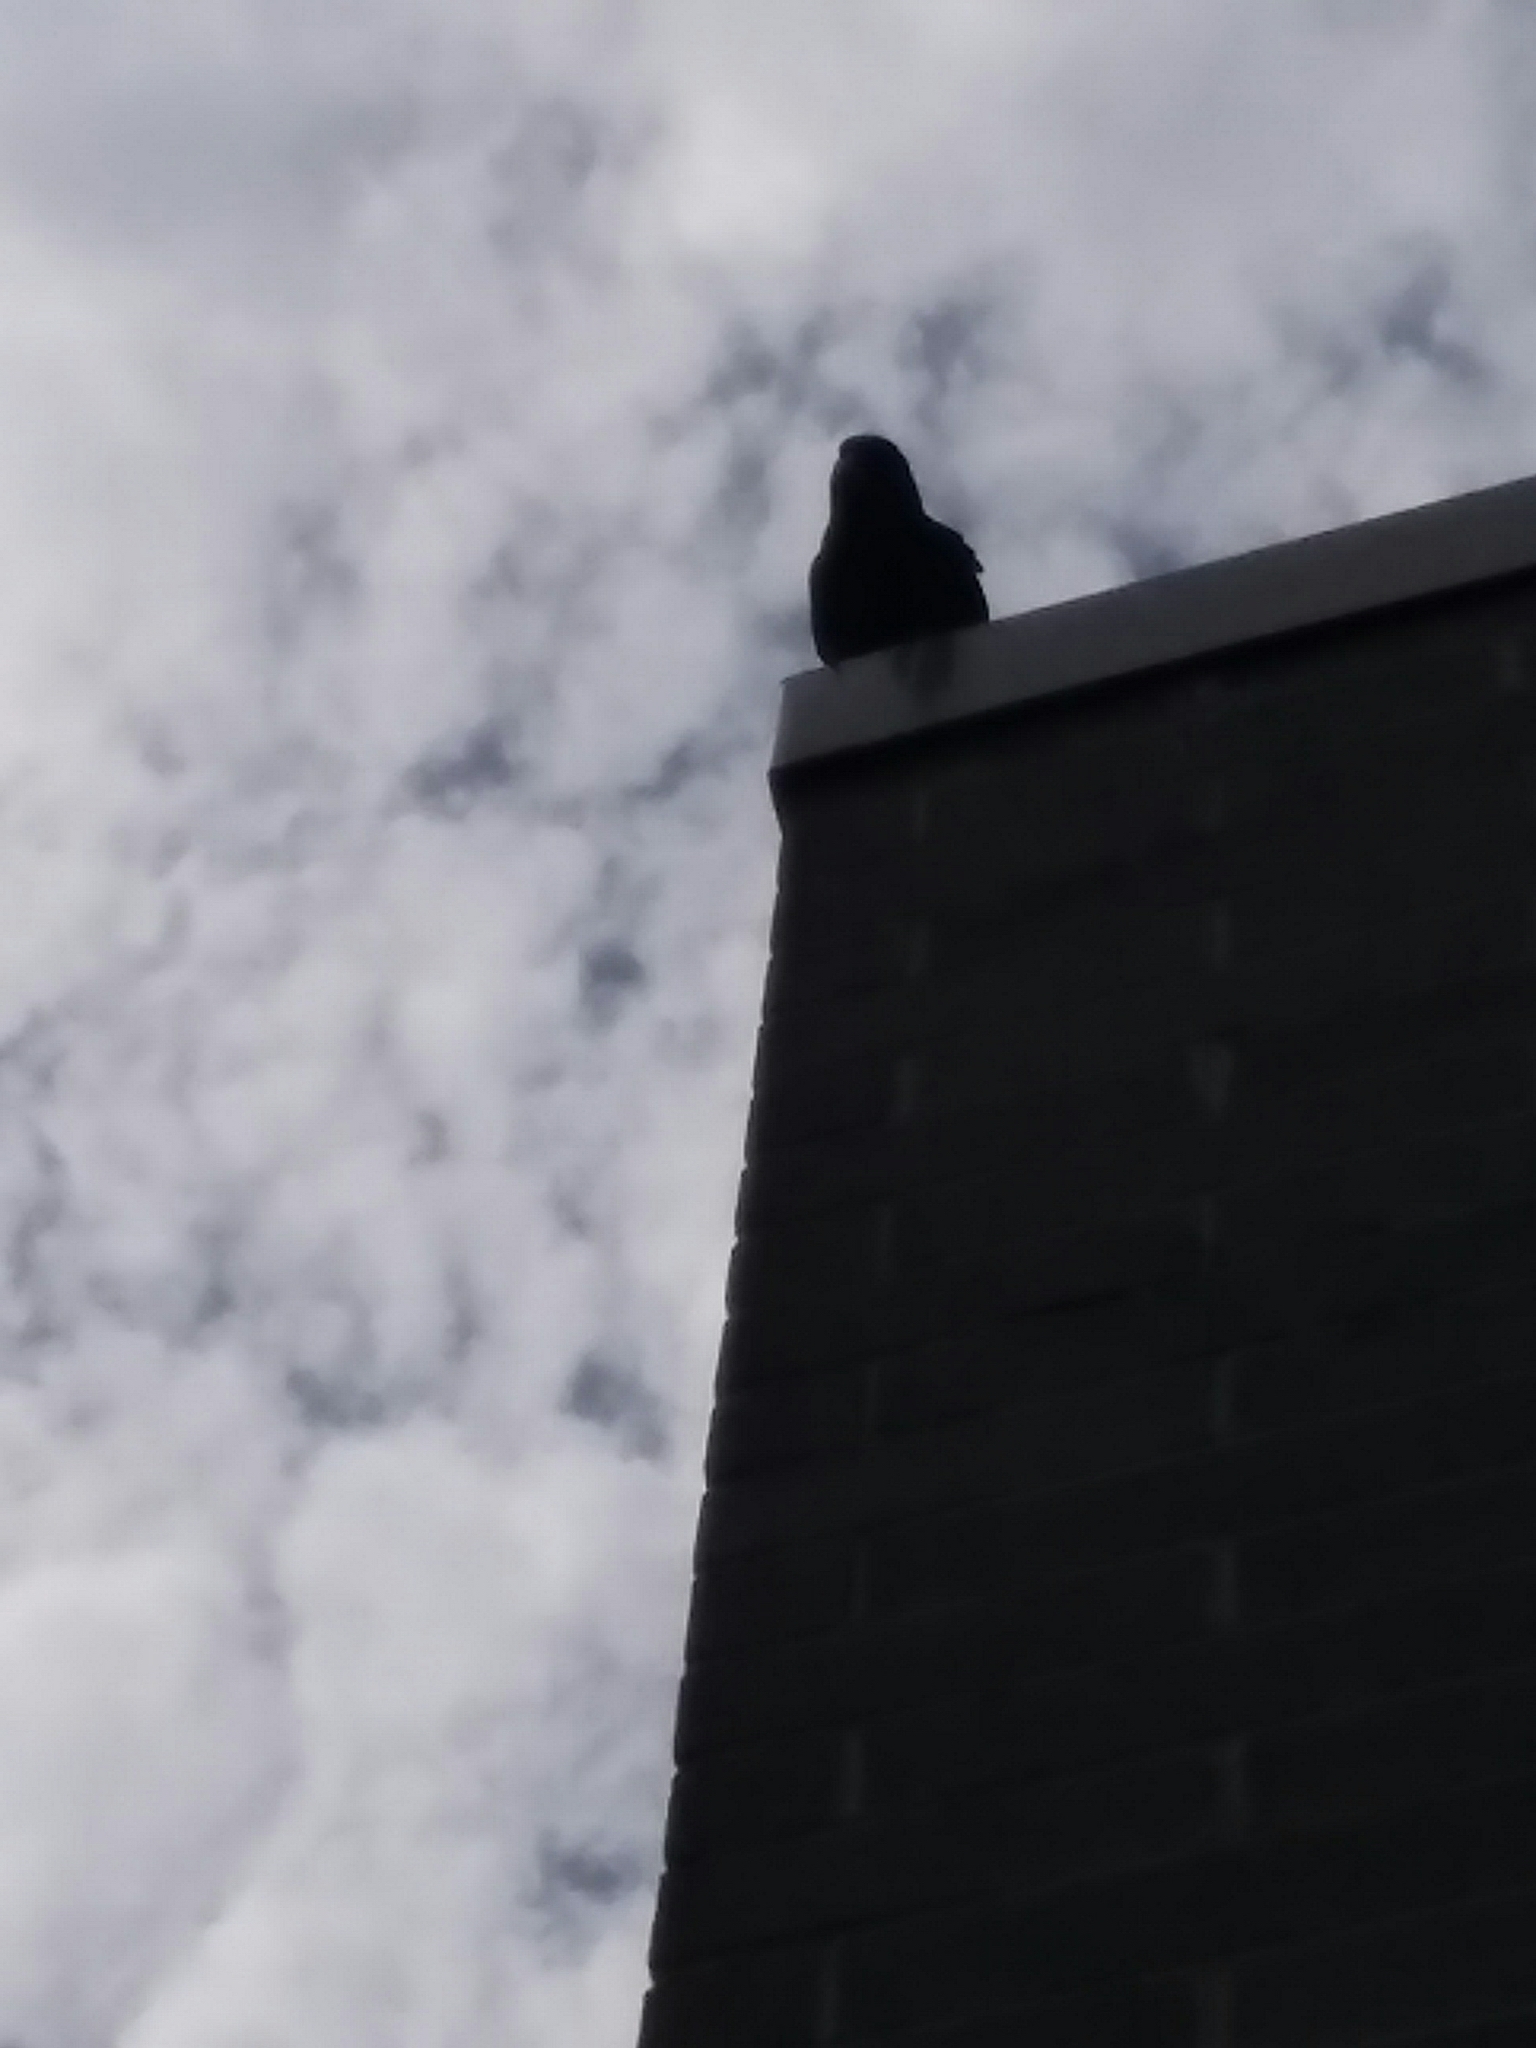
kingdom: Animalia
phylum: Chordata
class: Aves
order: Passeriformes
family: Corvidae
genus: Corvus
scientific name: Corvus brachyrhynchos
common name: American crow
